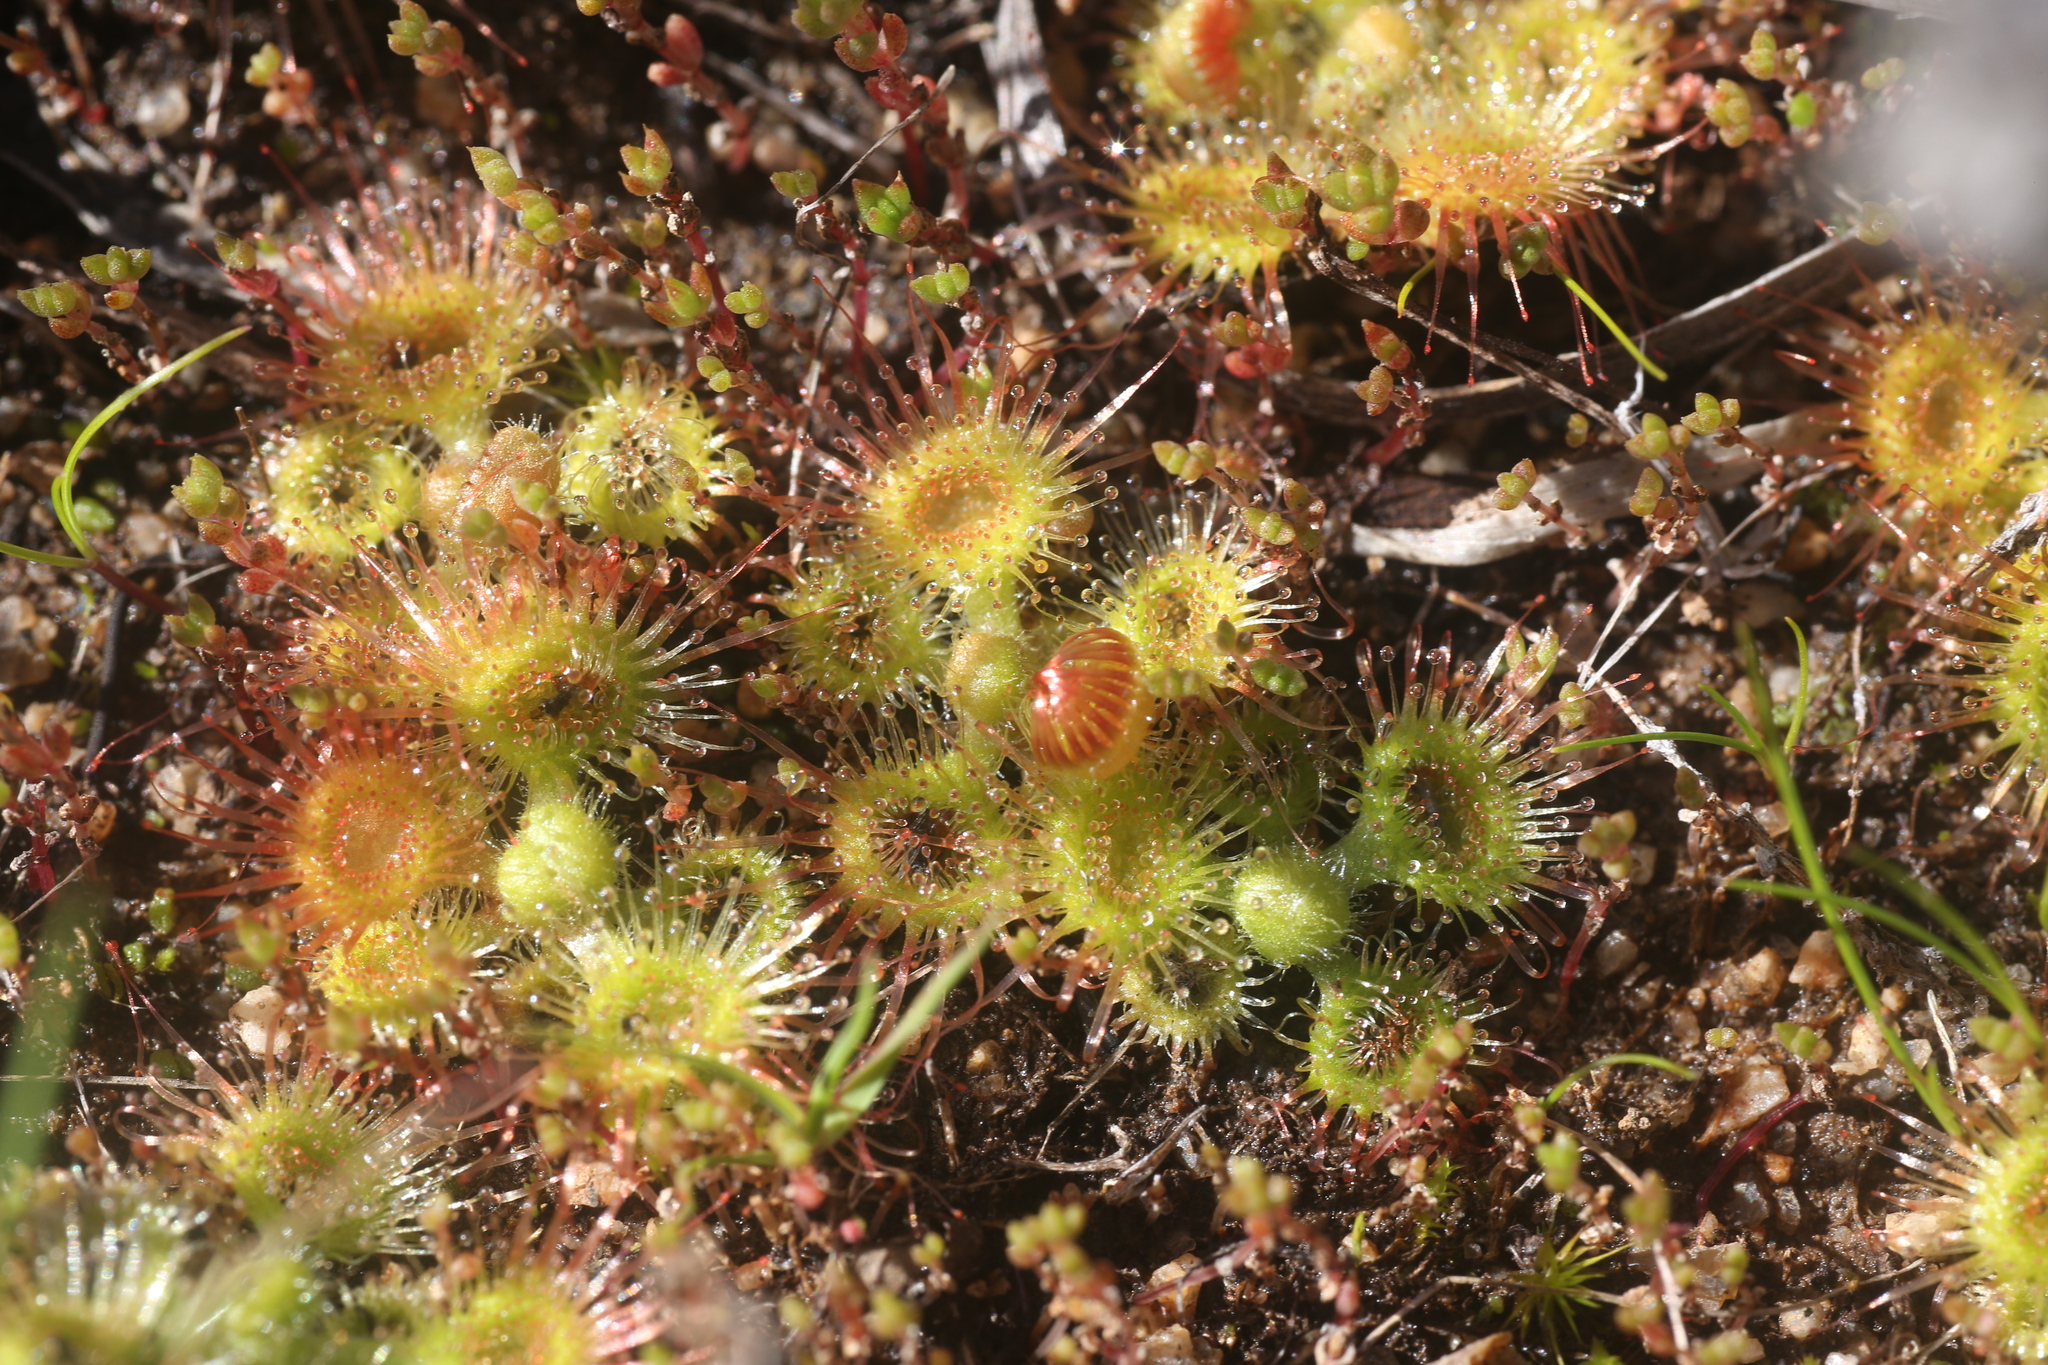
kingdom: Plantae
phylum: Tracheophyta
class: Magnoliopsida
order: Caryophyllales
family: Droseraceae
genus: Drosera
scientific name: Drosera glanduligera
